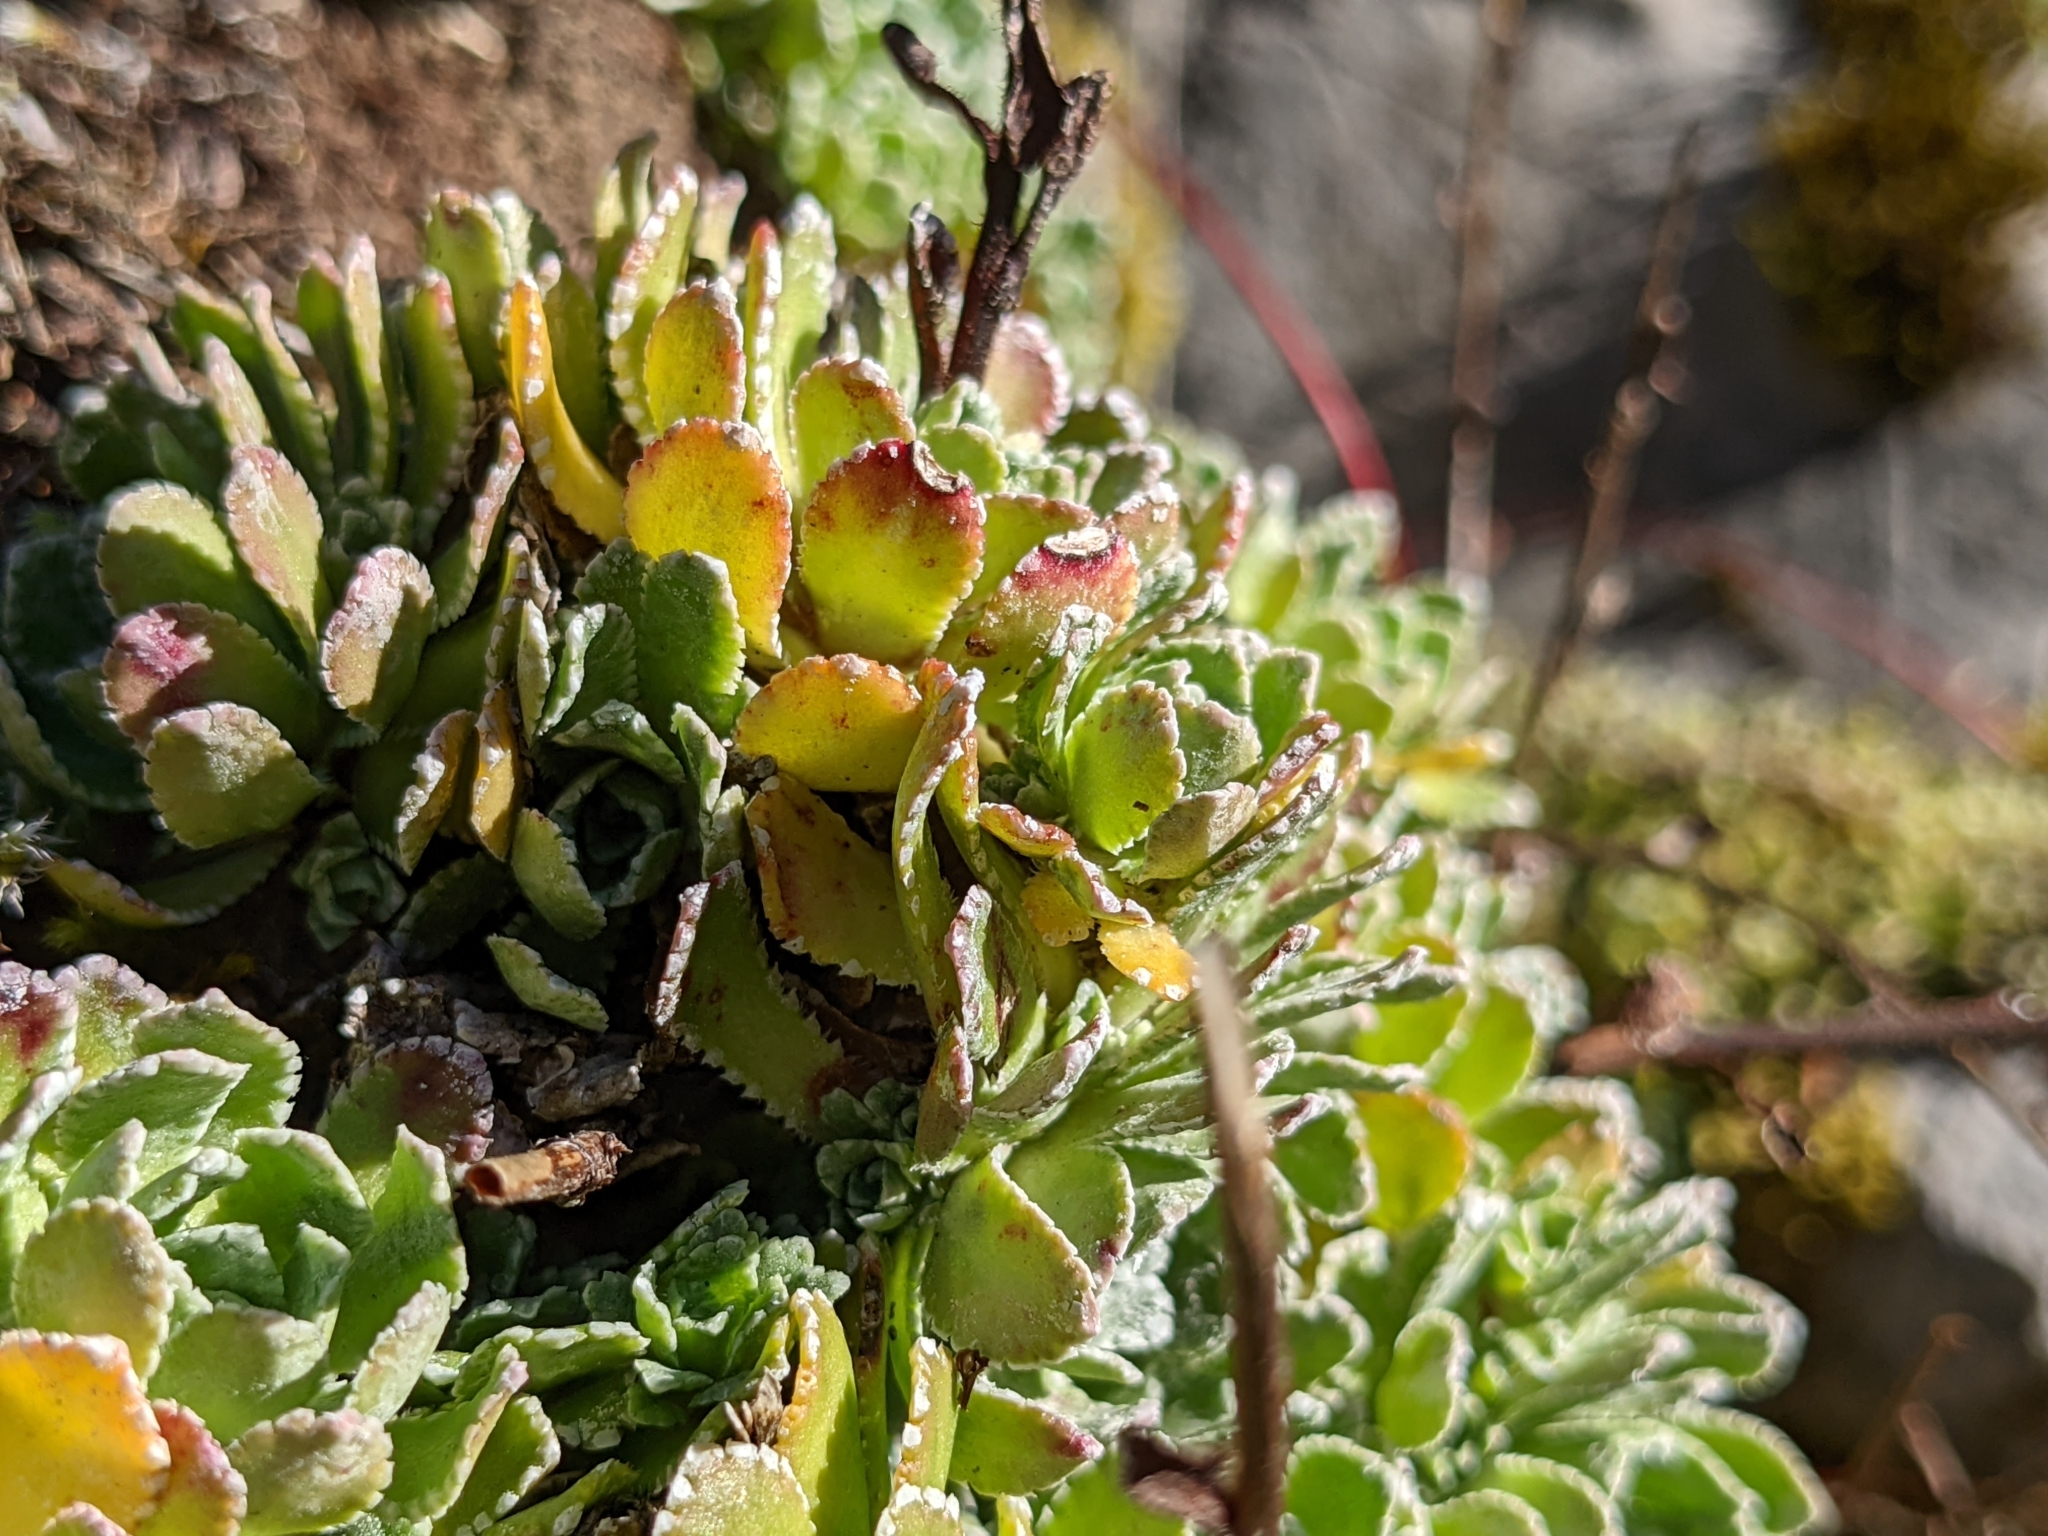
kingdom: Plantae
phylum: Tracheophyta
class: Magnoliopsida
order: Saxifragales
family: Saxifragaceae
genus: Saxifraga
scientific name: Saxifraga paniculata
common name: Livelong saxifrage
